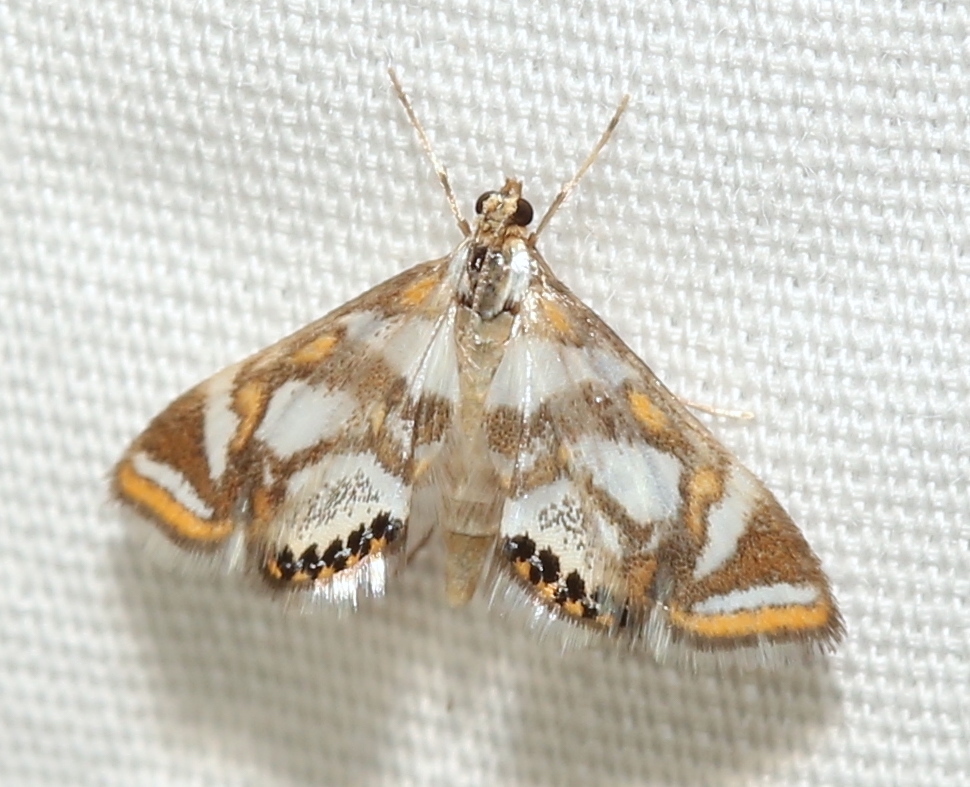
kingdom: Animalia
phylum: Arthropoda
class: Insecta
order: Lepidoptera
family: Crambidae
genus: Chrysendeton
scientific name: Chrysendeton medicinalis
